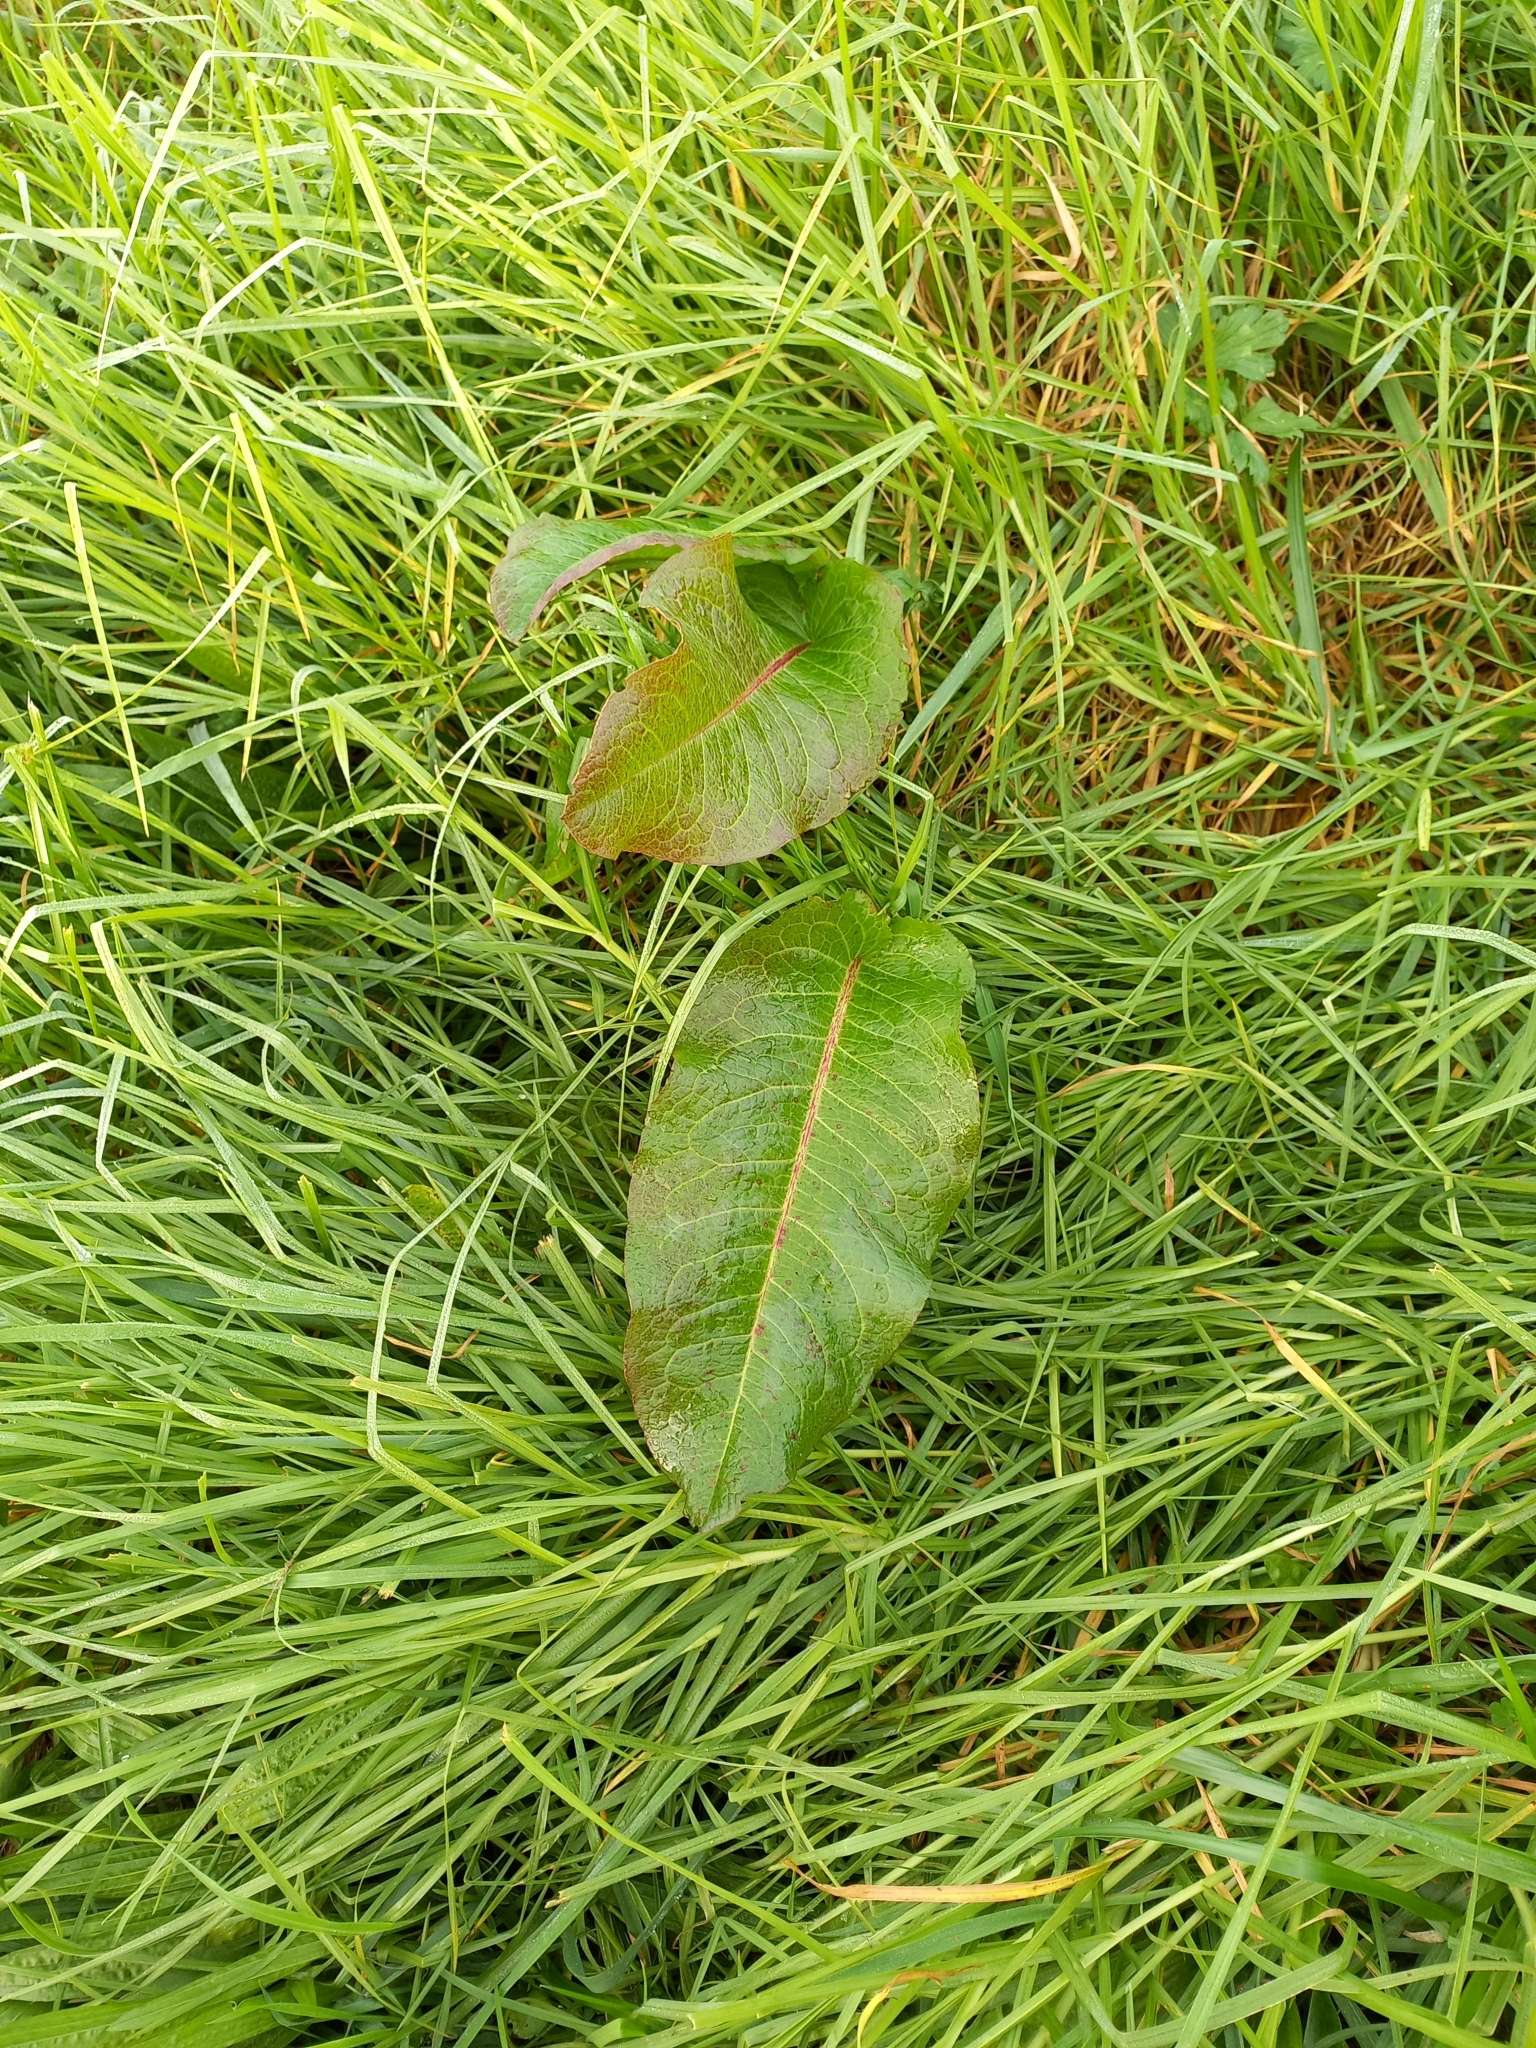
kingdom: Plantae
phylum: Tracheophyta
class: Magnoliopsida
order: Caryophyllales
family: Polygonaceae
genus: Rumex
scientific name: Rumex obtusifolius
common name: Bitter dock
